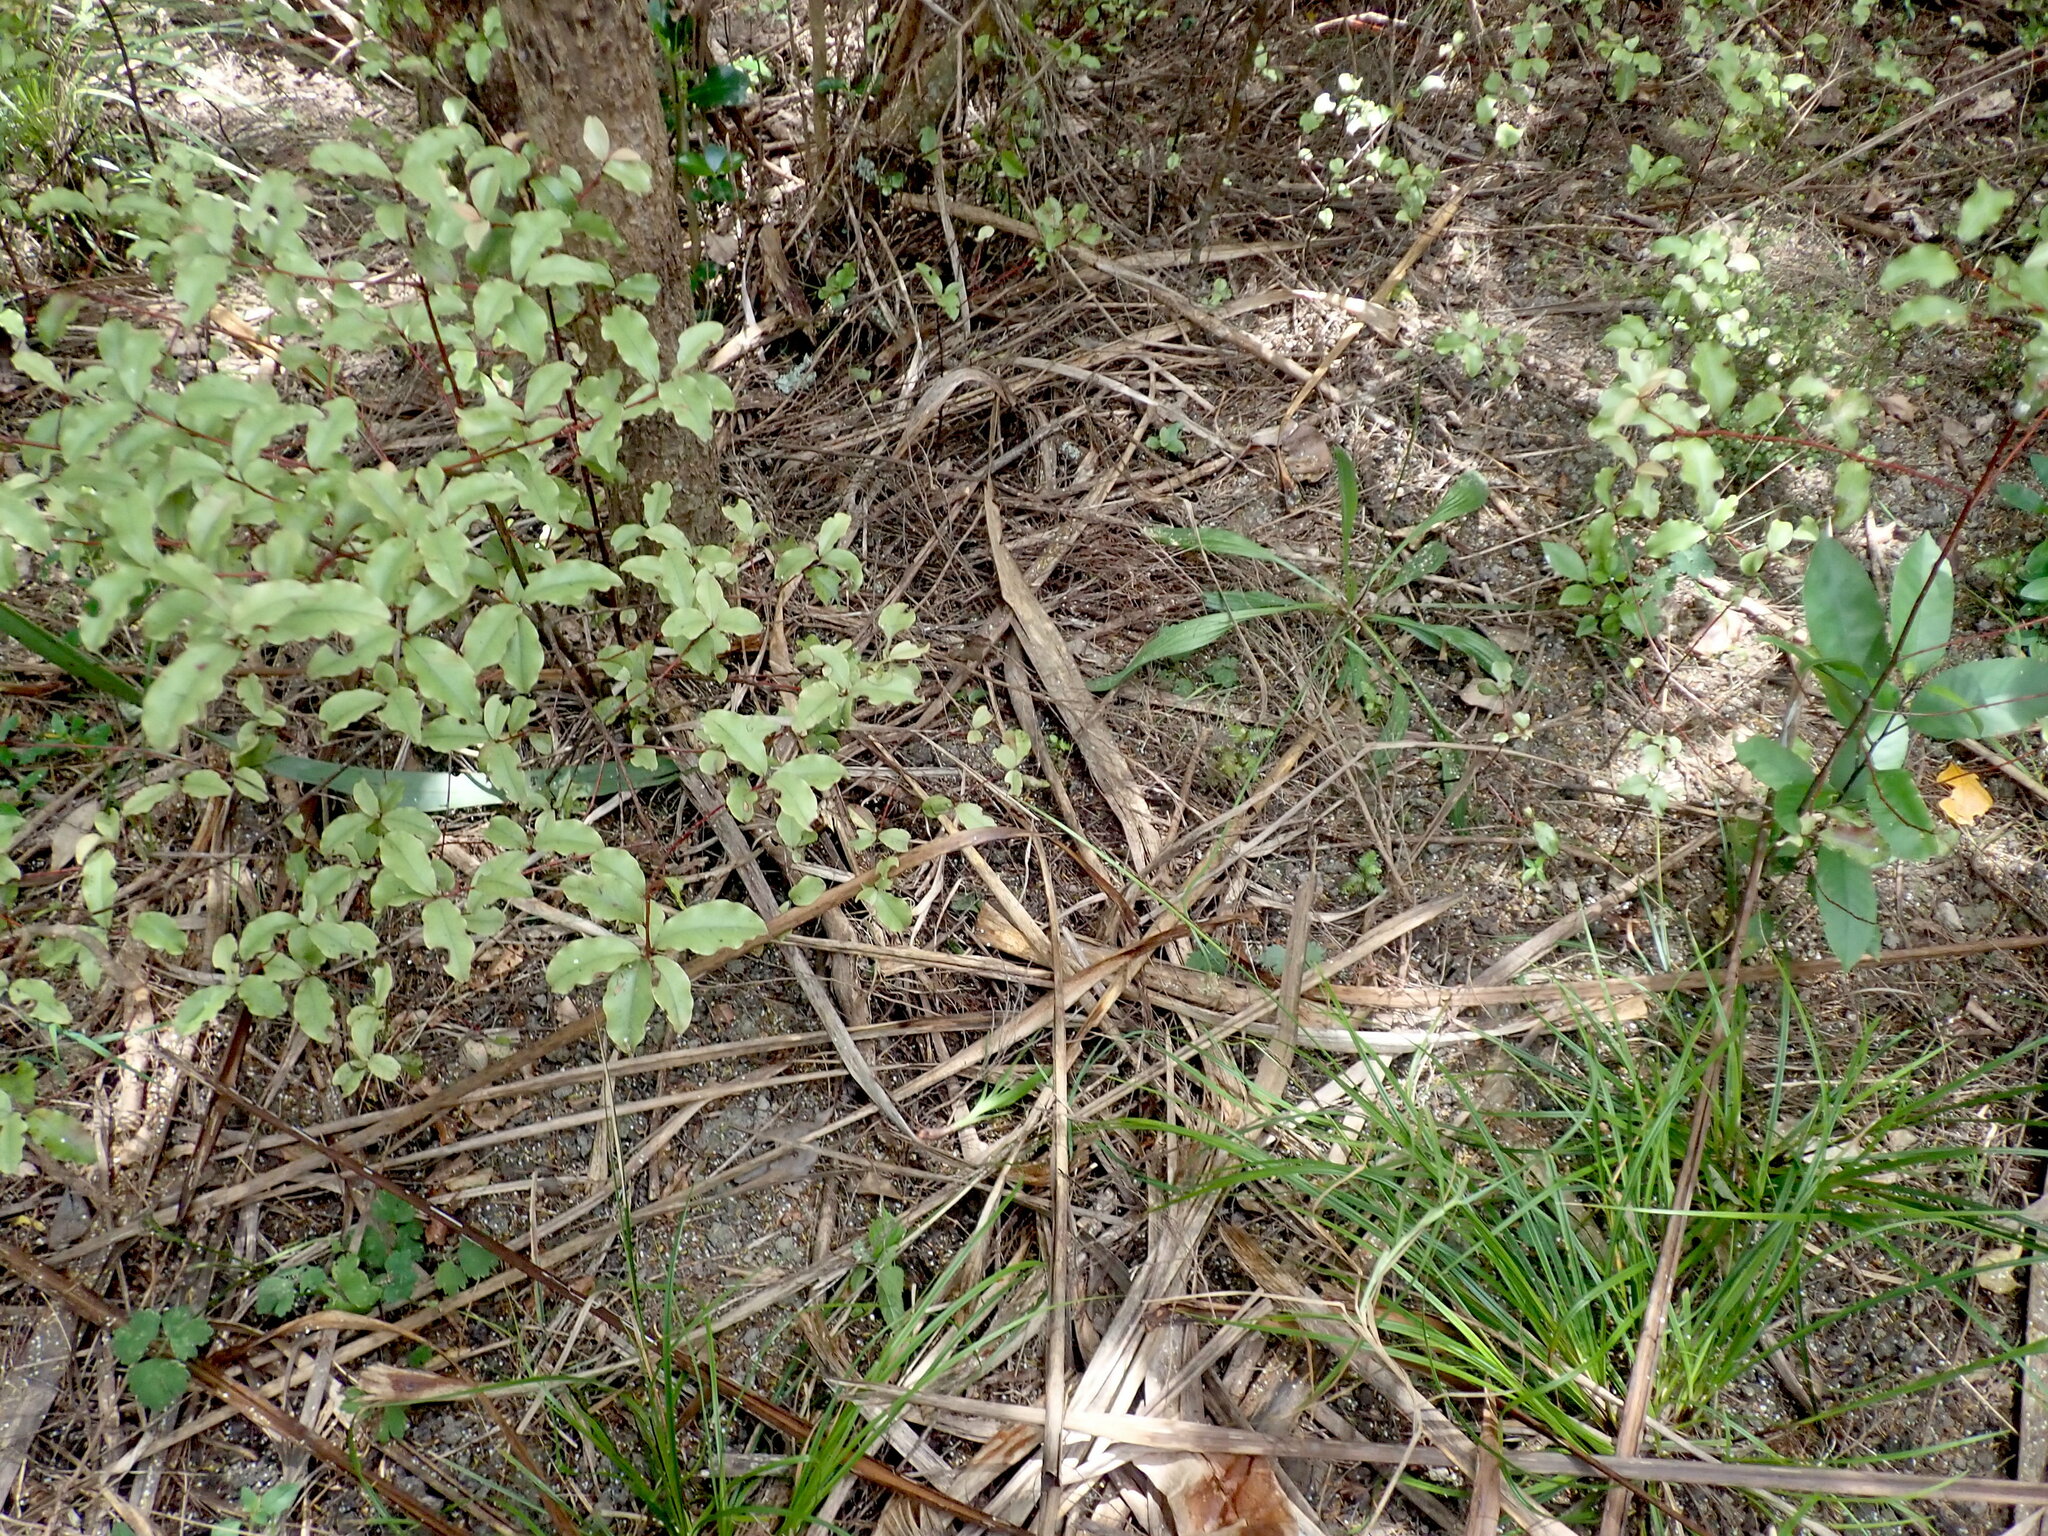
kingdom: Plantae
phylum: Tracheophyta
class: Magnoliopsida
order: Ericales
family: Primulaceae
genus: Myrsine
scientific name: Myrsine australis
